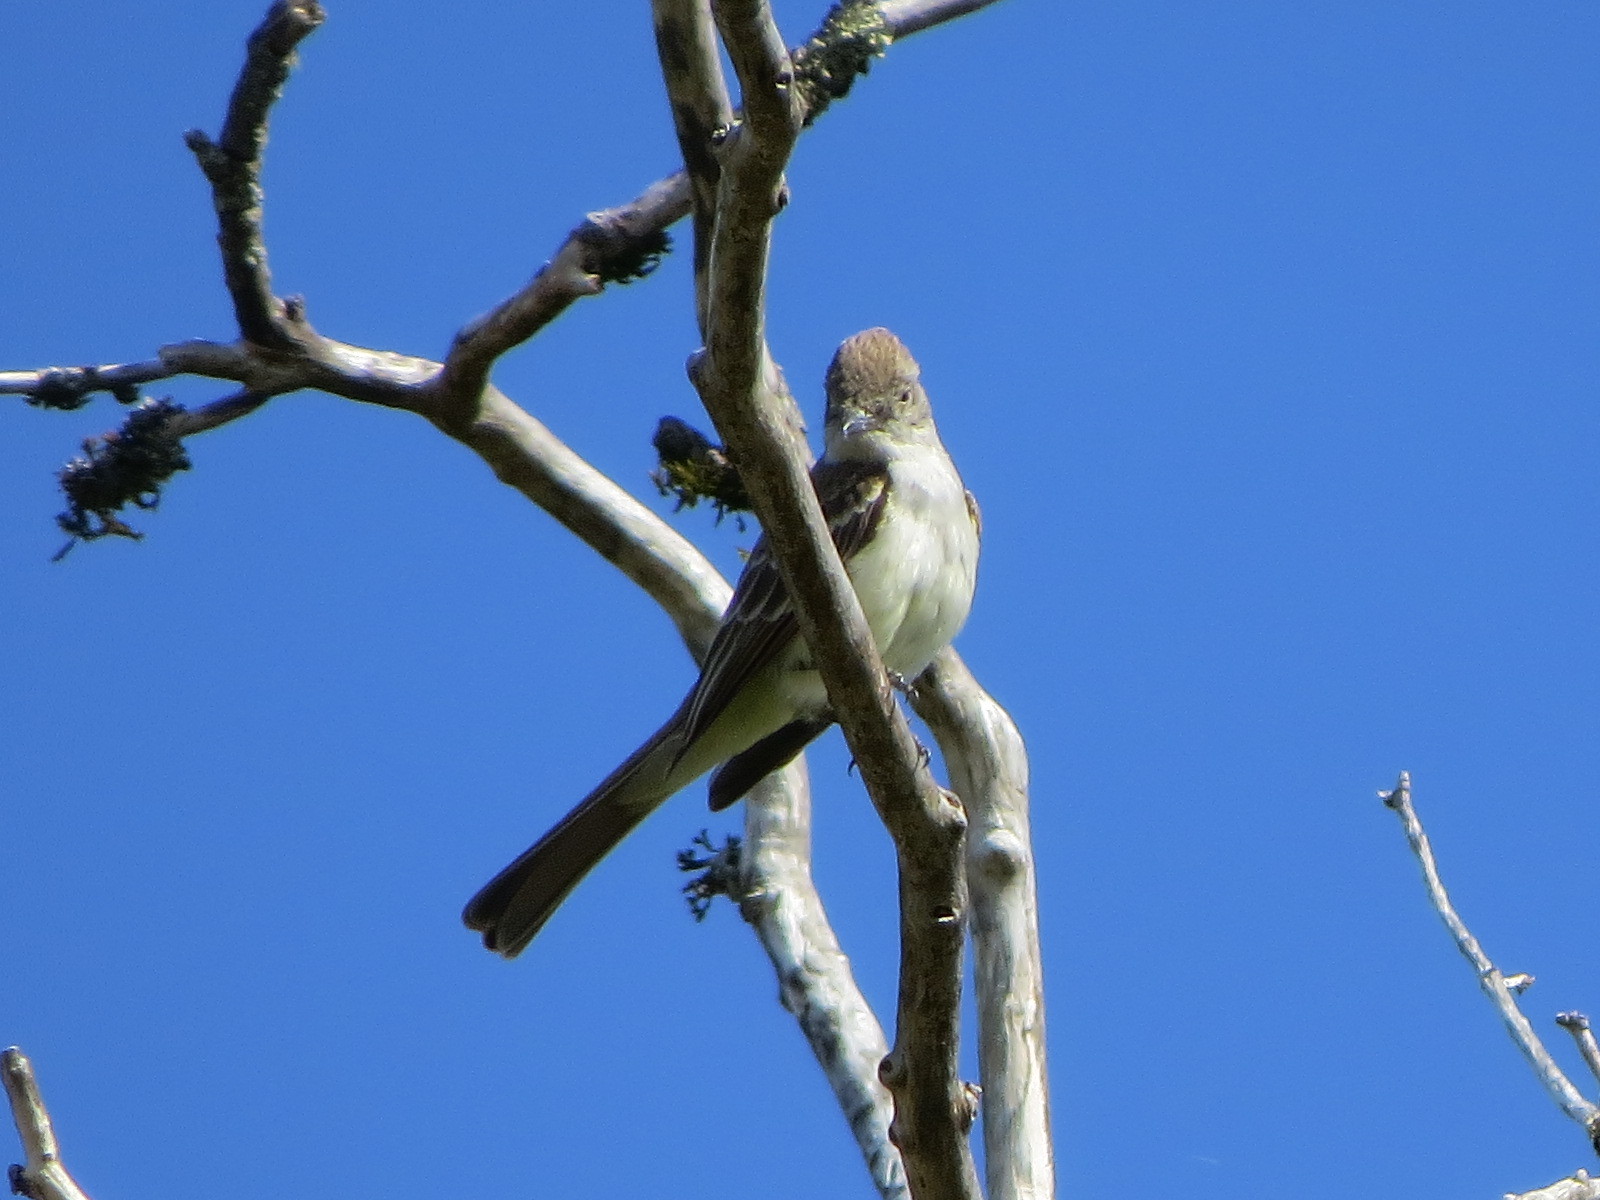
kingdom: Animalia
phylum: Chordata
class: Aves
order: Passeriformes
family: Tyrannidae
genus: Myiarchus
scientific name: Myiarchus cinerascens
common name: Ash-throated flycatcher
